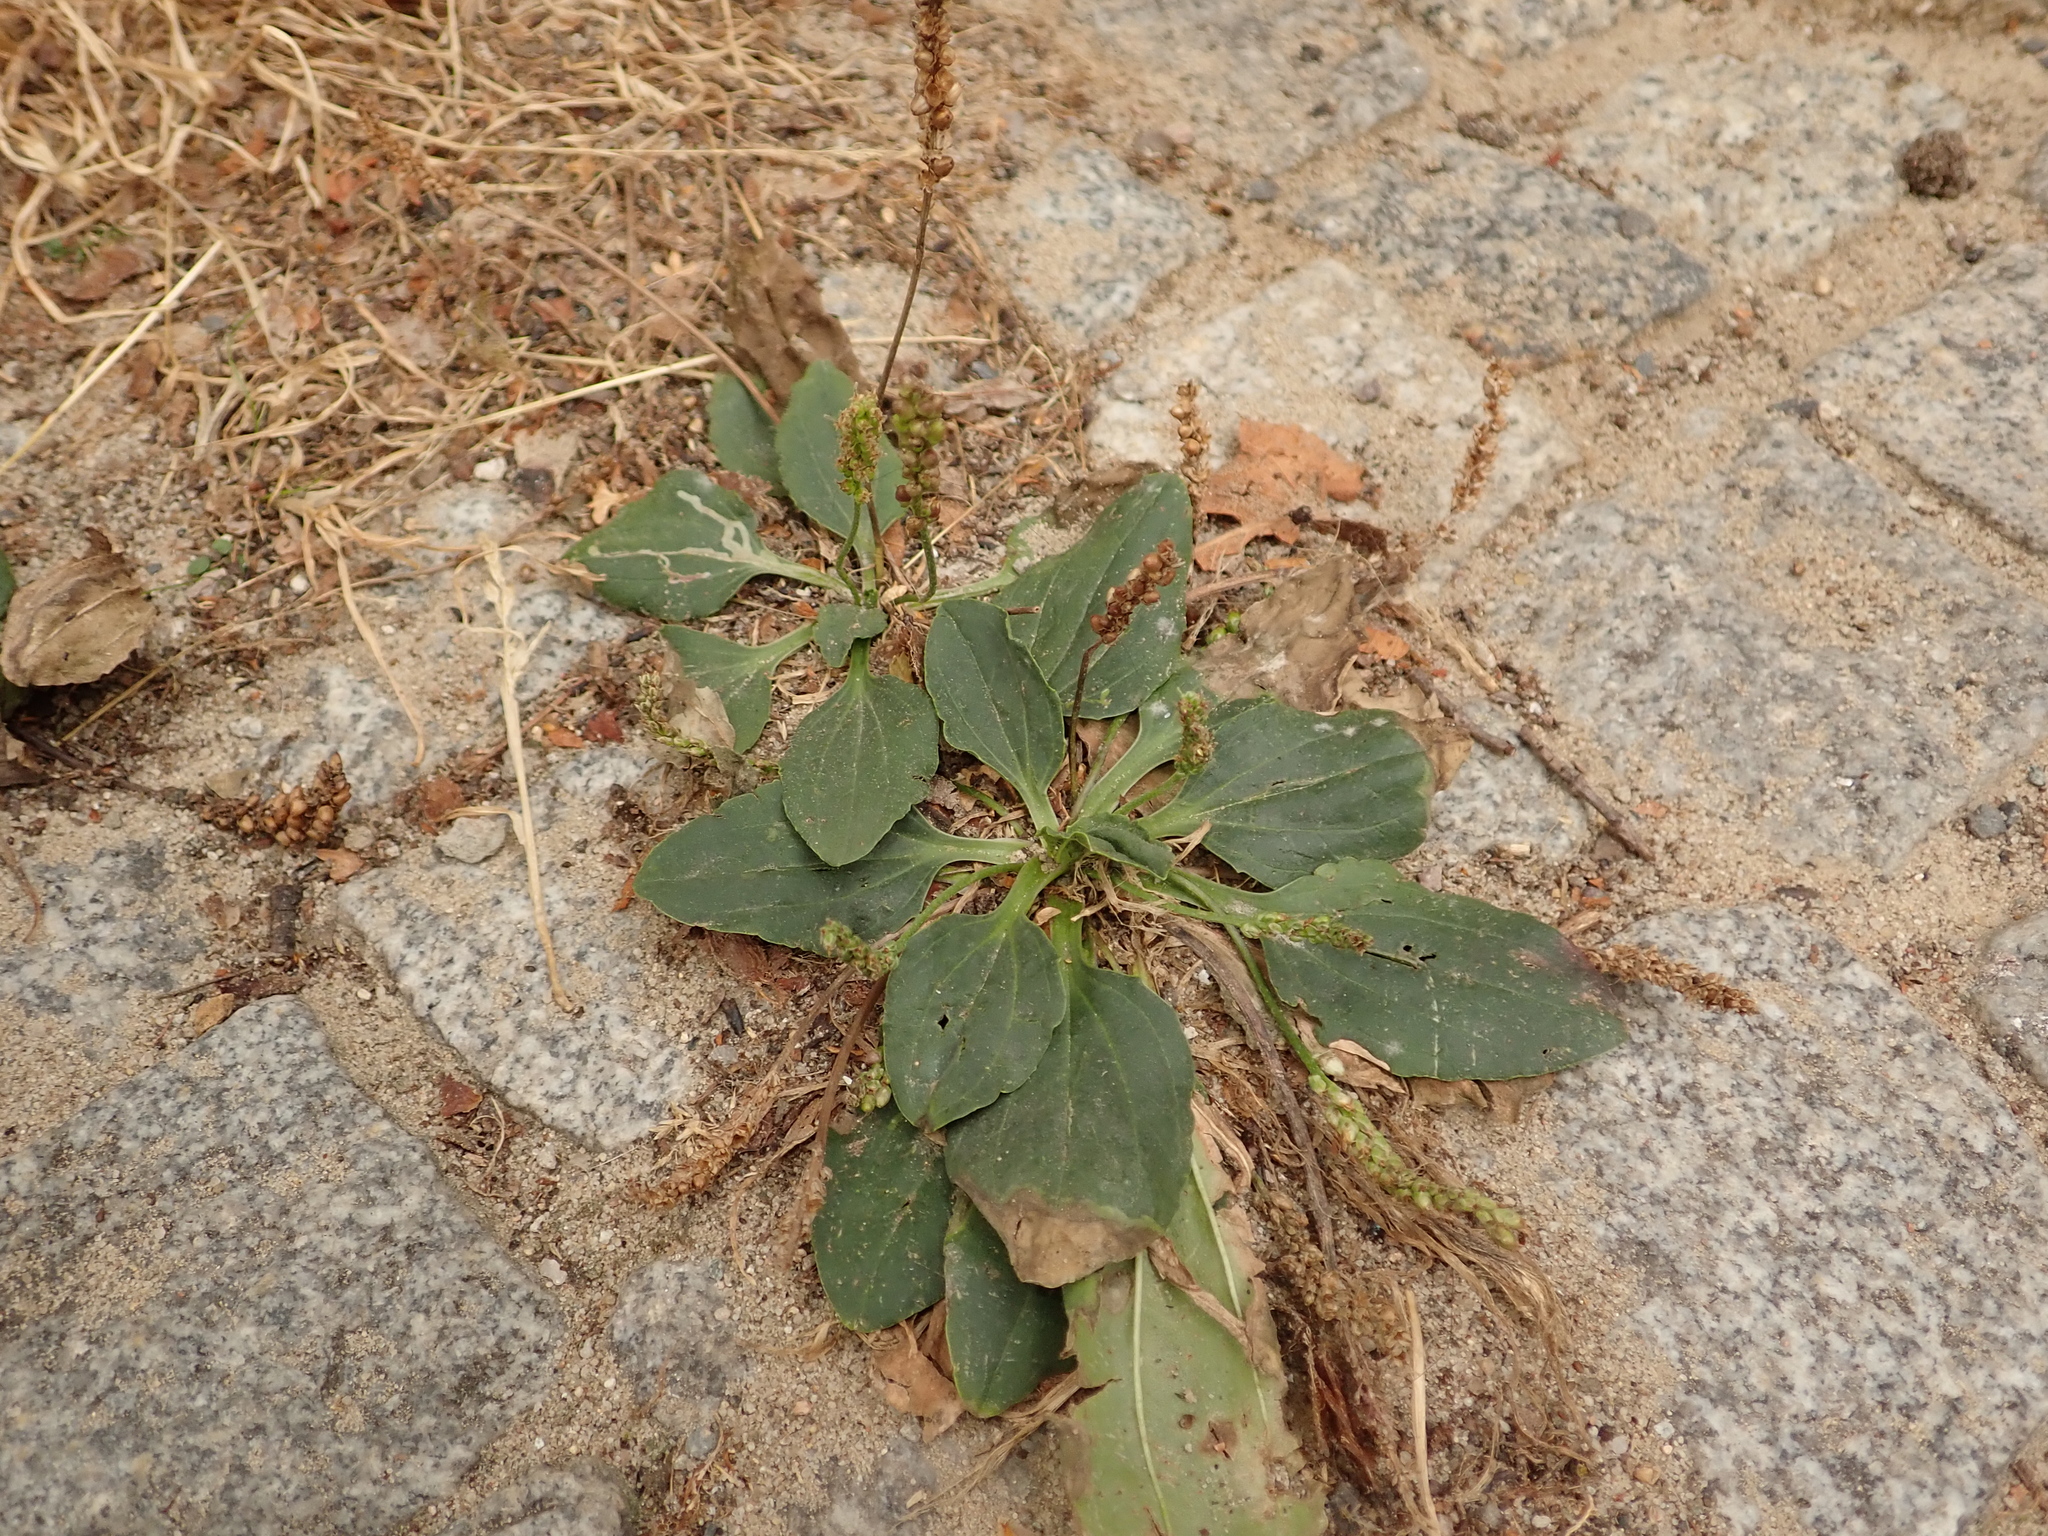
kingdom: Plantae
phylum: Tracheophyta
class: Magnoliopsida
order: Lamiales
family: Plantaginaceae
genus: Plantago
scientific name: Plantago major
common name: Common plantain
